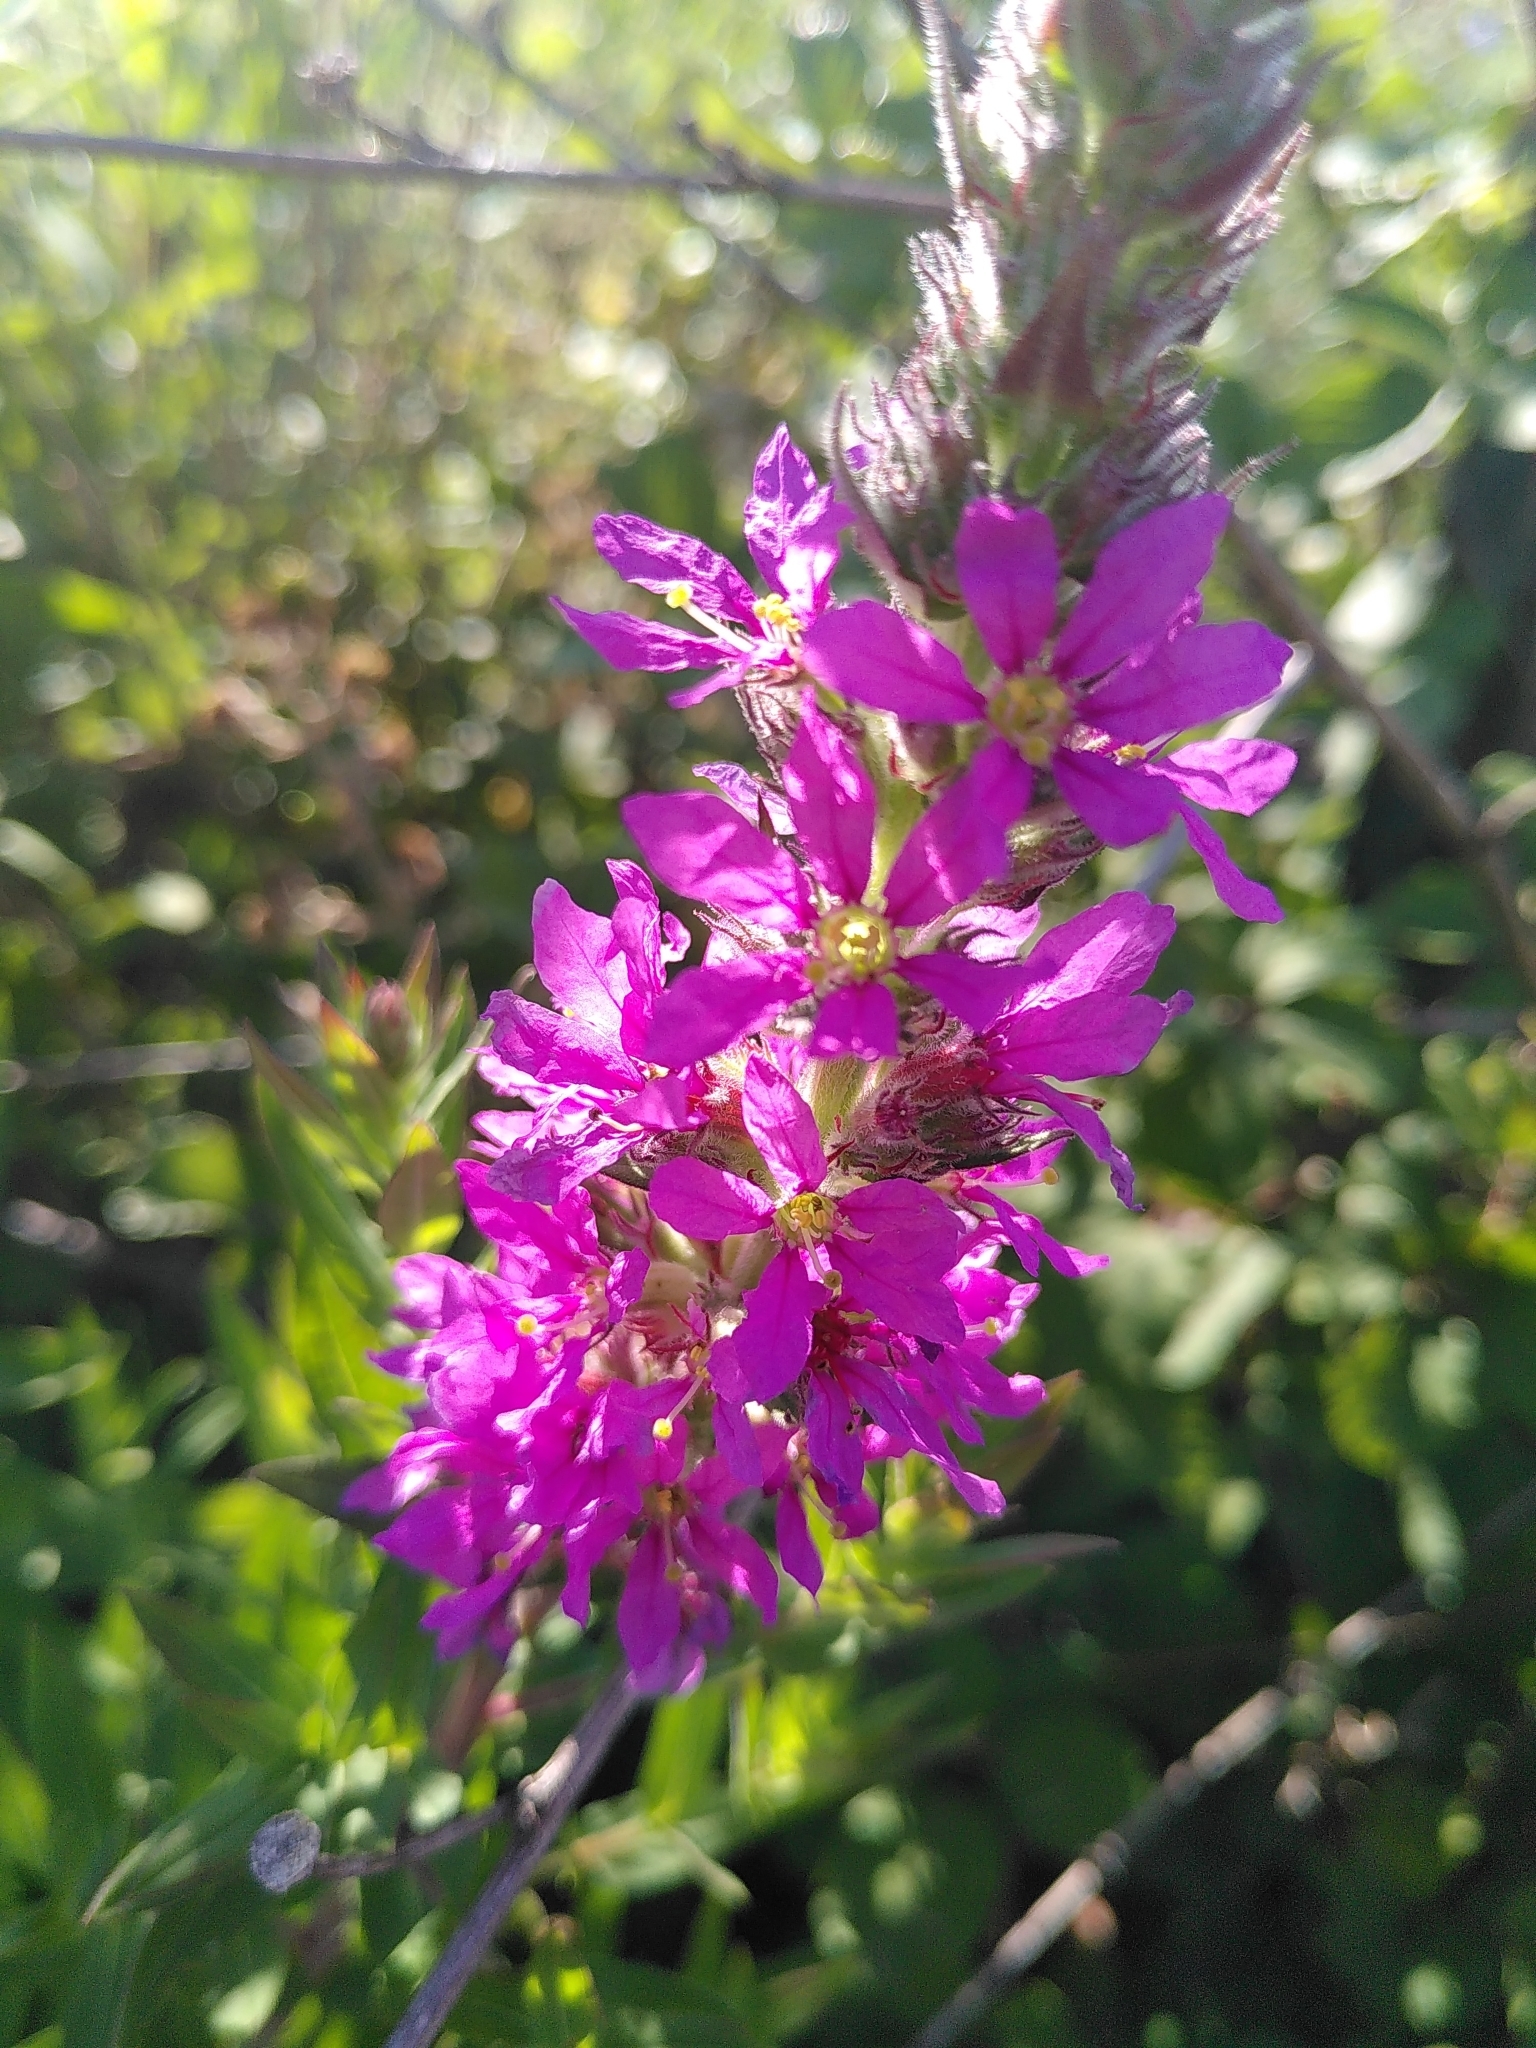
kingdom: Plantae
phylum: Tracheophyta
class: Magnoliopsida
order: Myrtales
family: Lythraceae
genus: Lythrum
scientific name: Lythrum salicaria
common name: Purple loosestrife
